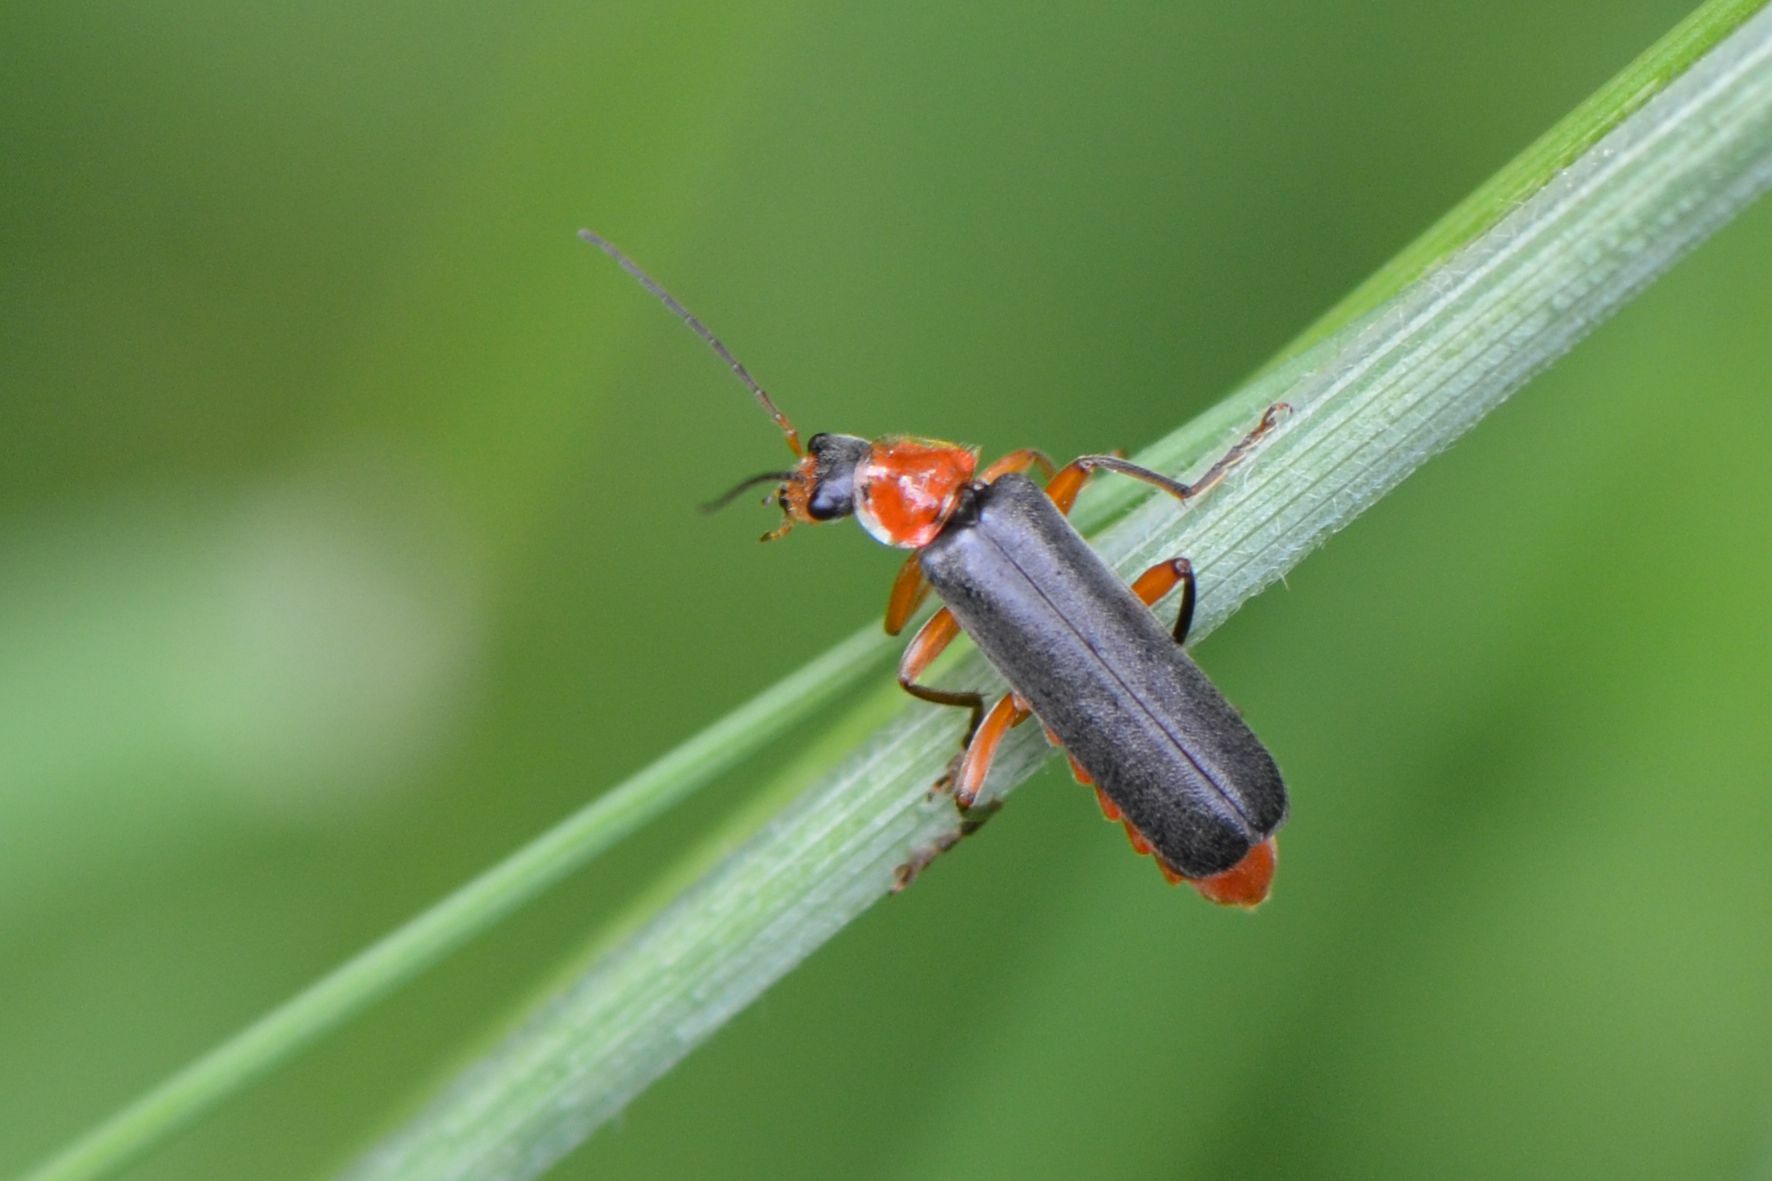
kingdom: Animalia
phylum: Arthropoda
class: Insecta
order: Coleoptera
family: Cantharidae
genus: Cantharis
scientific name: Cantharis pellucida
